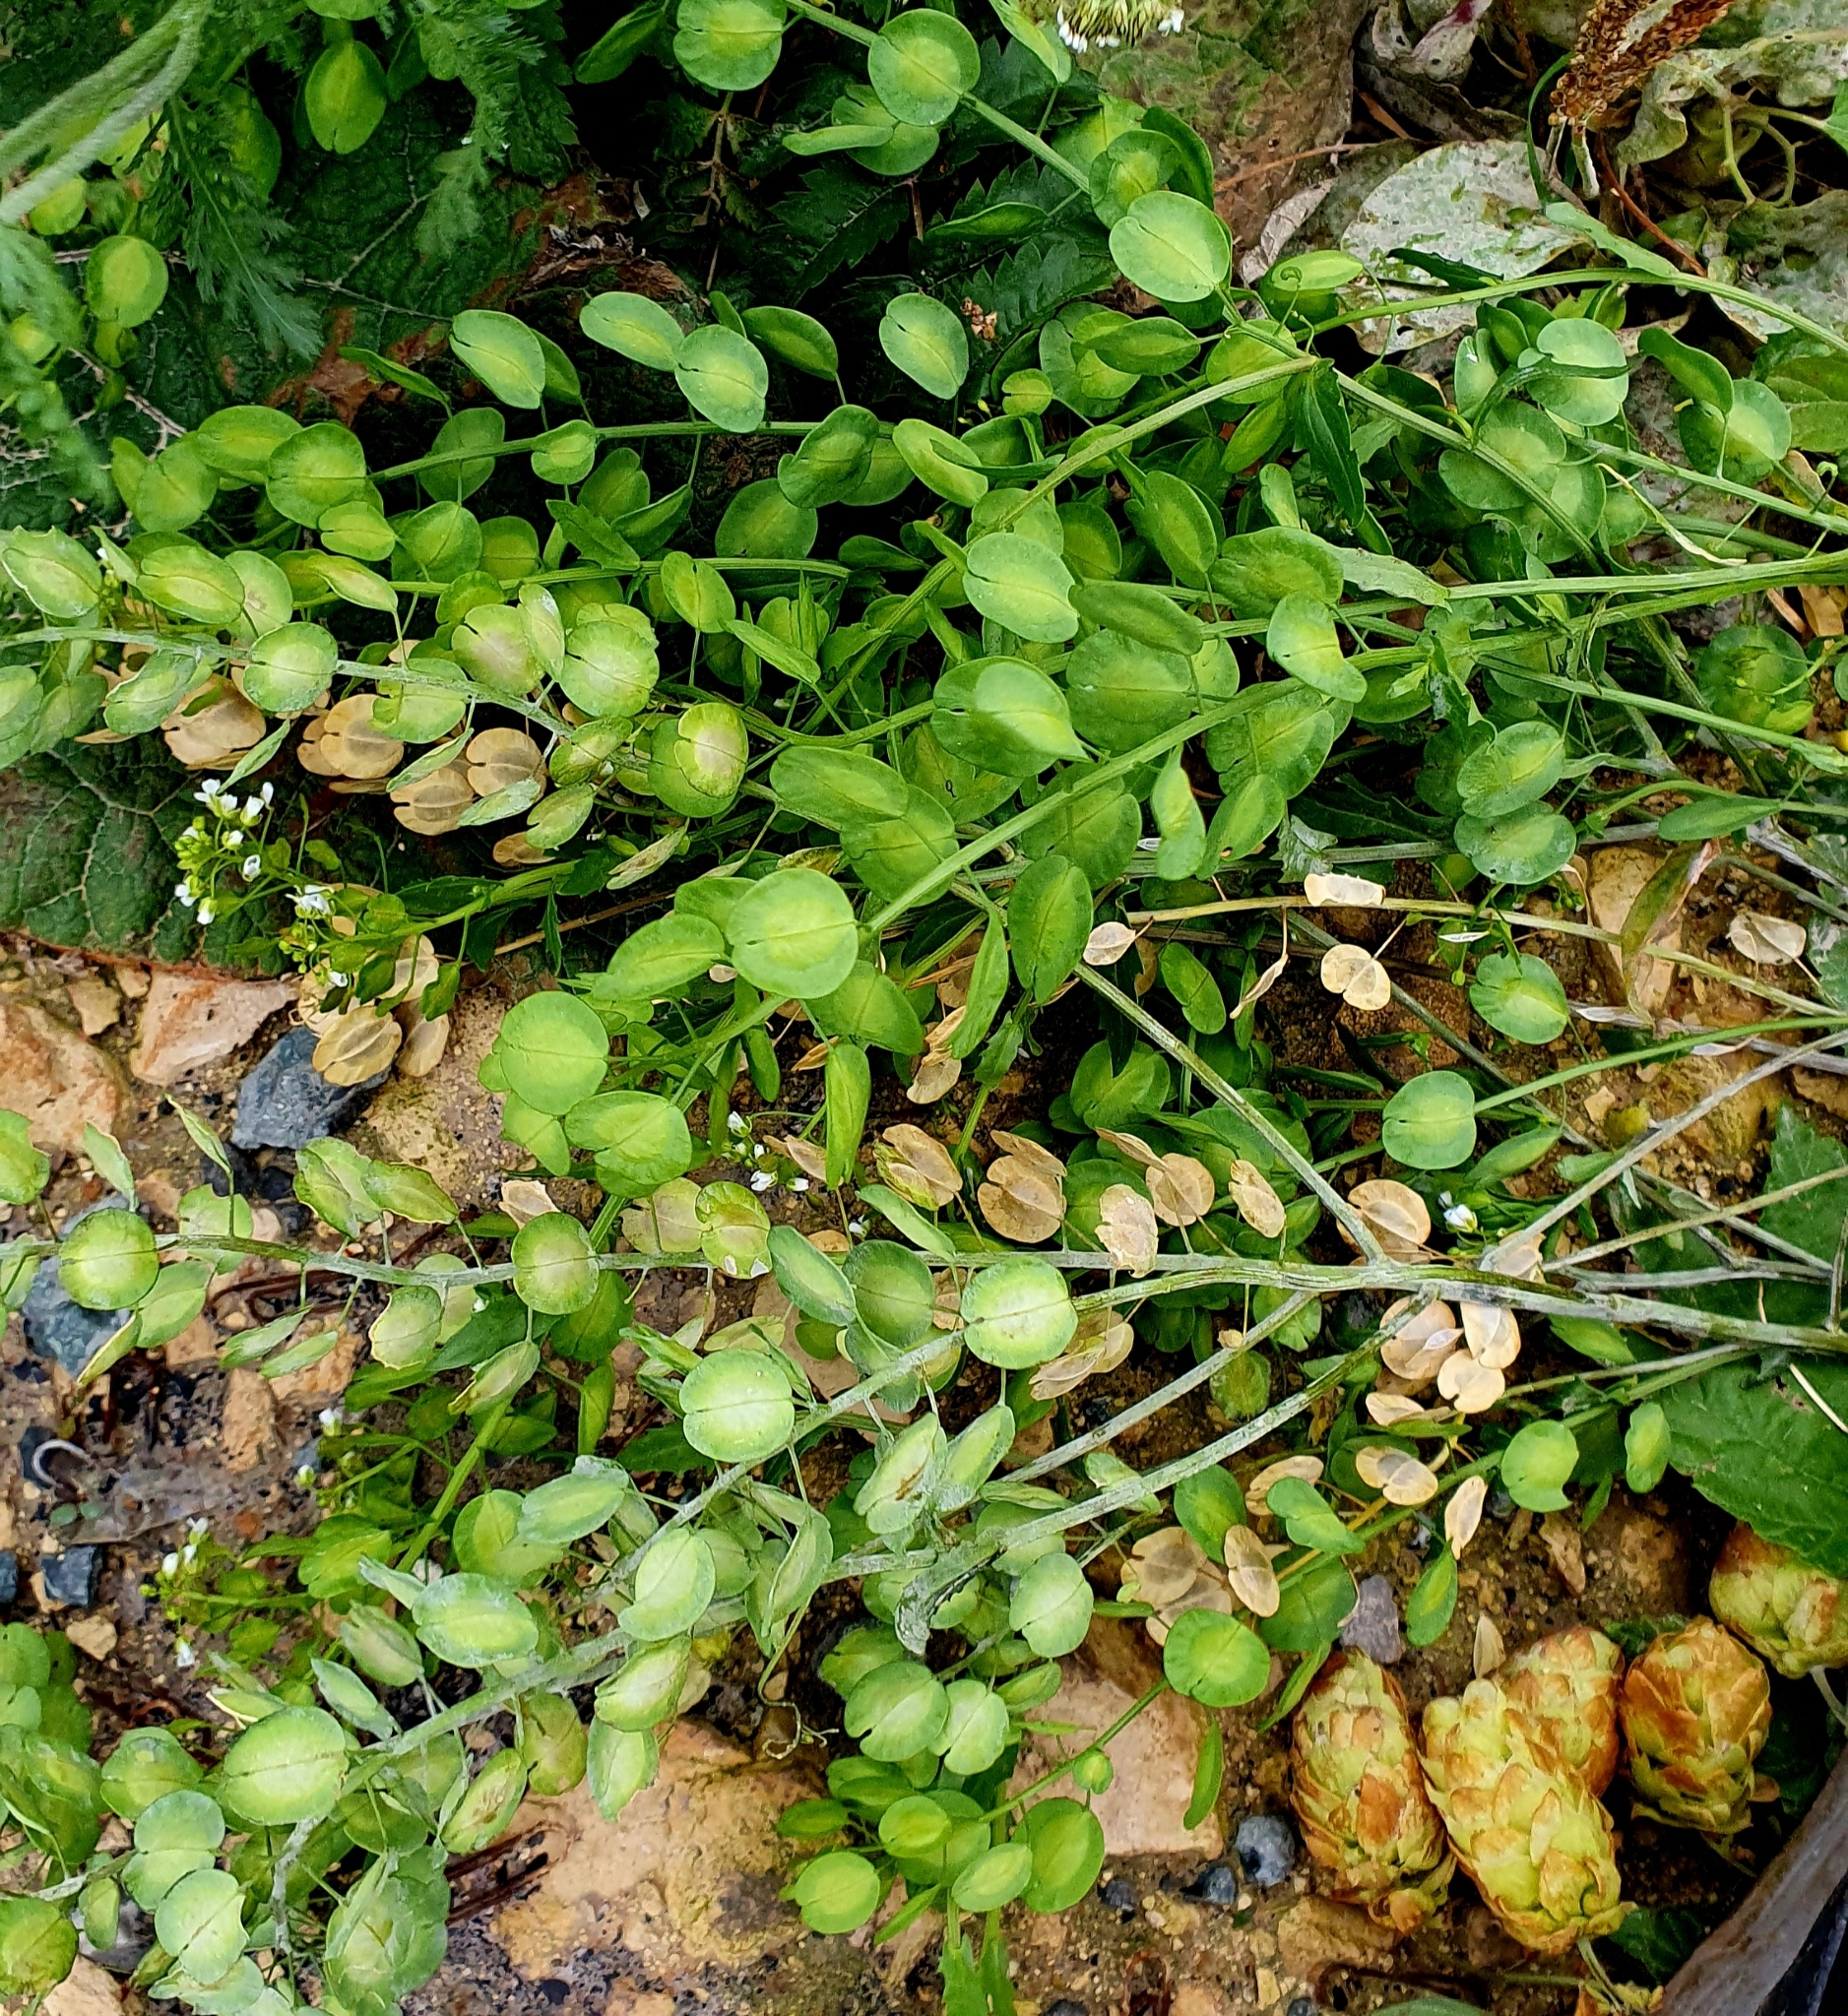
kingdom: Plantae
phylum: Tracheophyta
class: Magnoliopsida
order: Brassicales
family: Brassicaceae
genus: Thlaspi
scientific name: Thlaspi arvense
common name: Field pennycress
